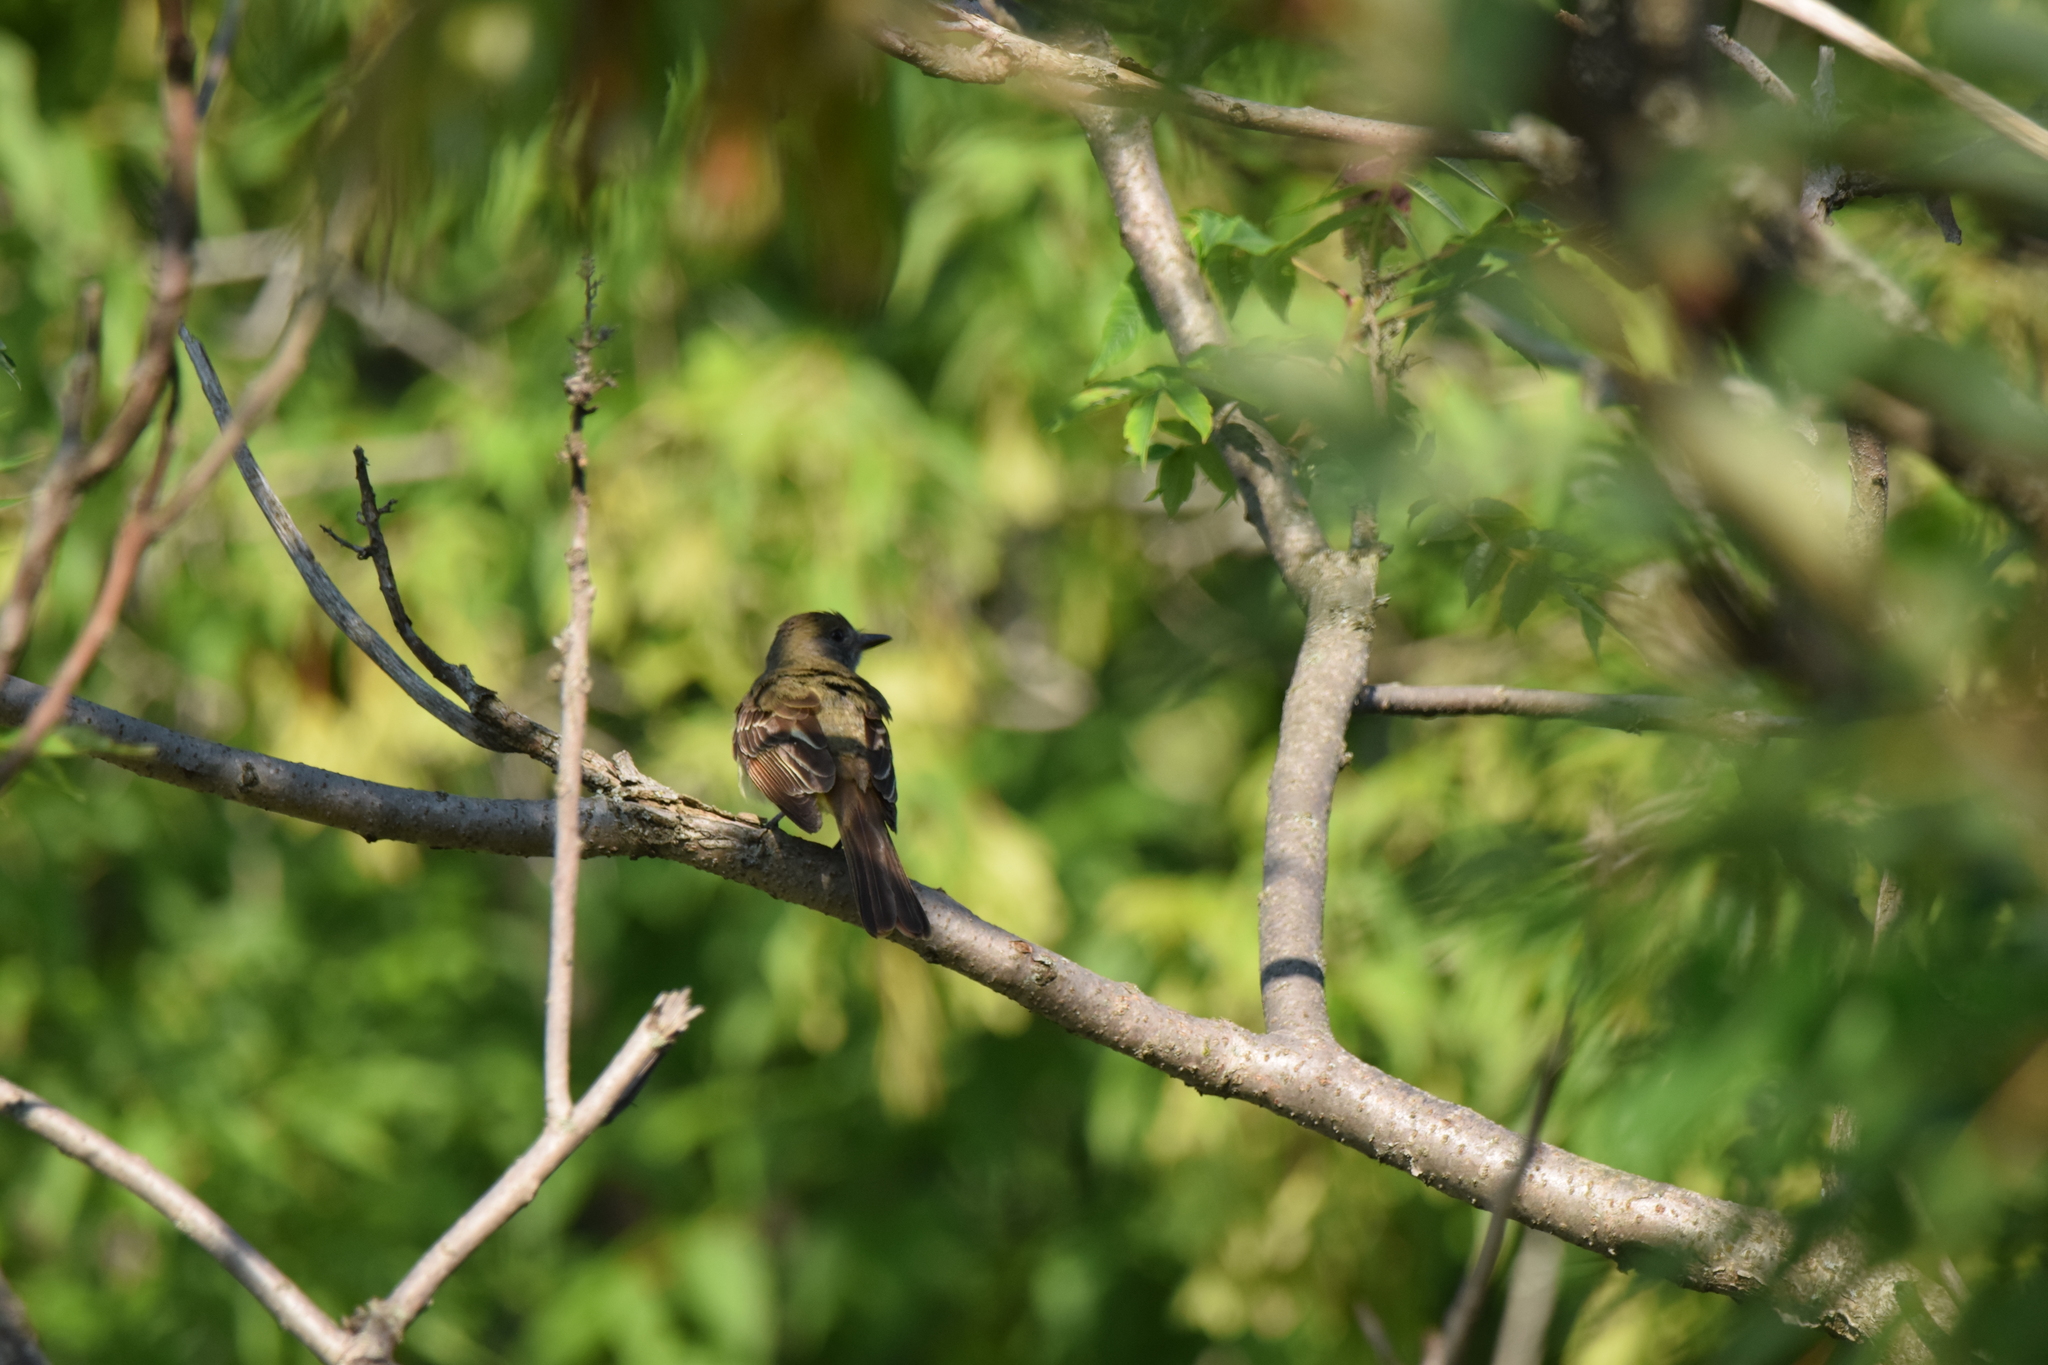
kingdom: Animalia
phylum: Chordata
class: Aves
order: Passeriformes
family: Tyrannidae
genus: Myiarchus
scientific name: Myiarchus crinitus
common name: Great crested flycatcher
